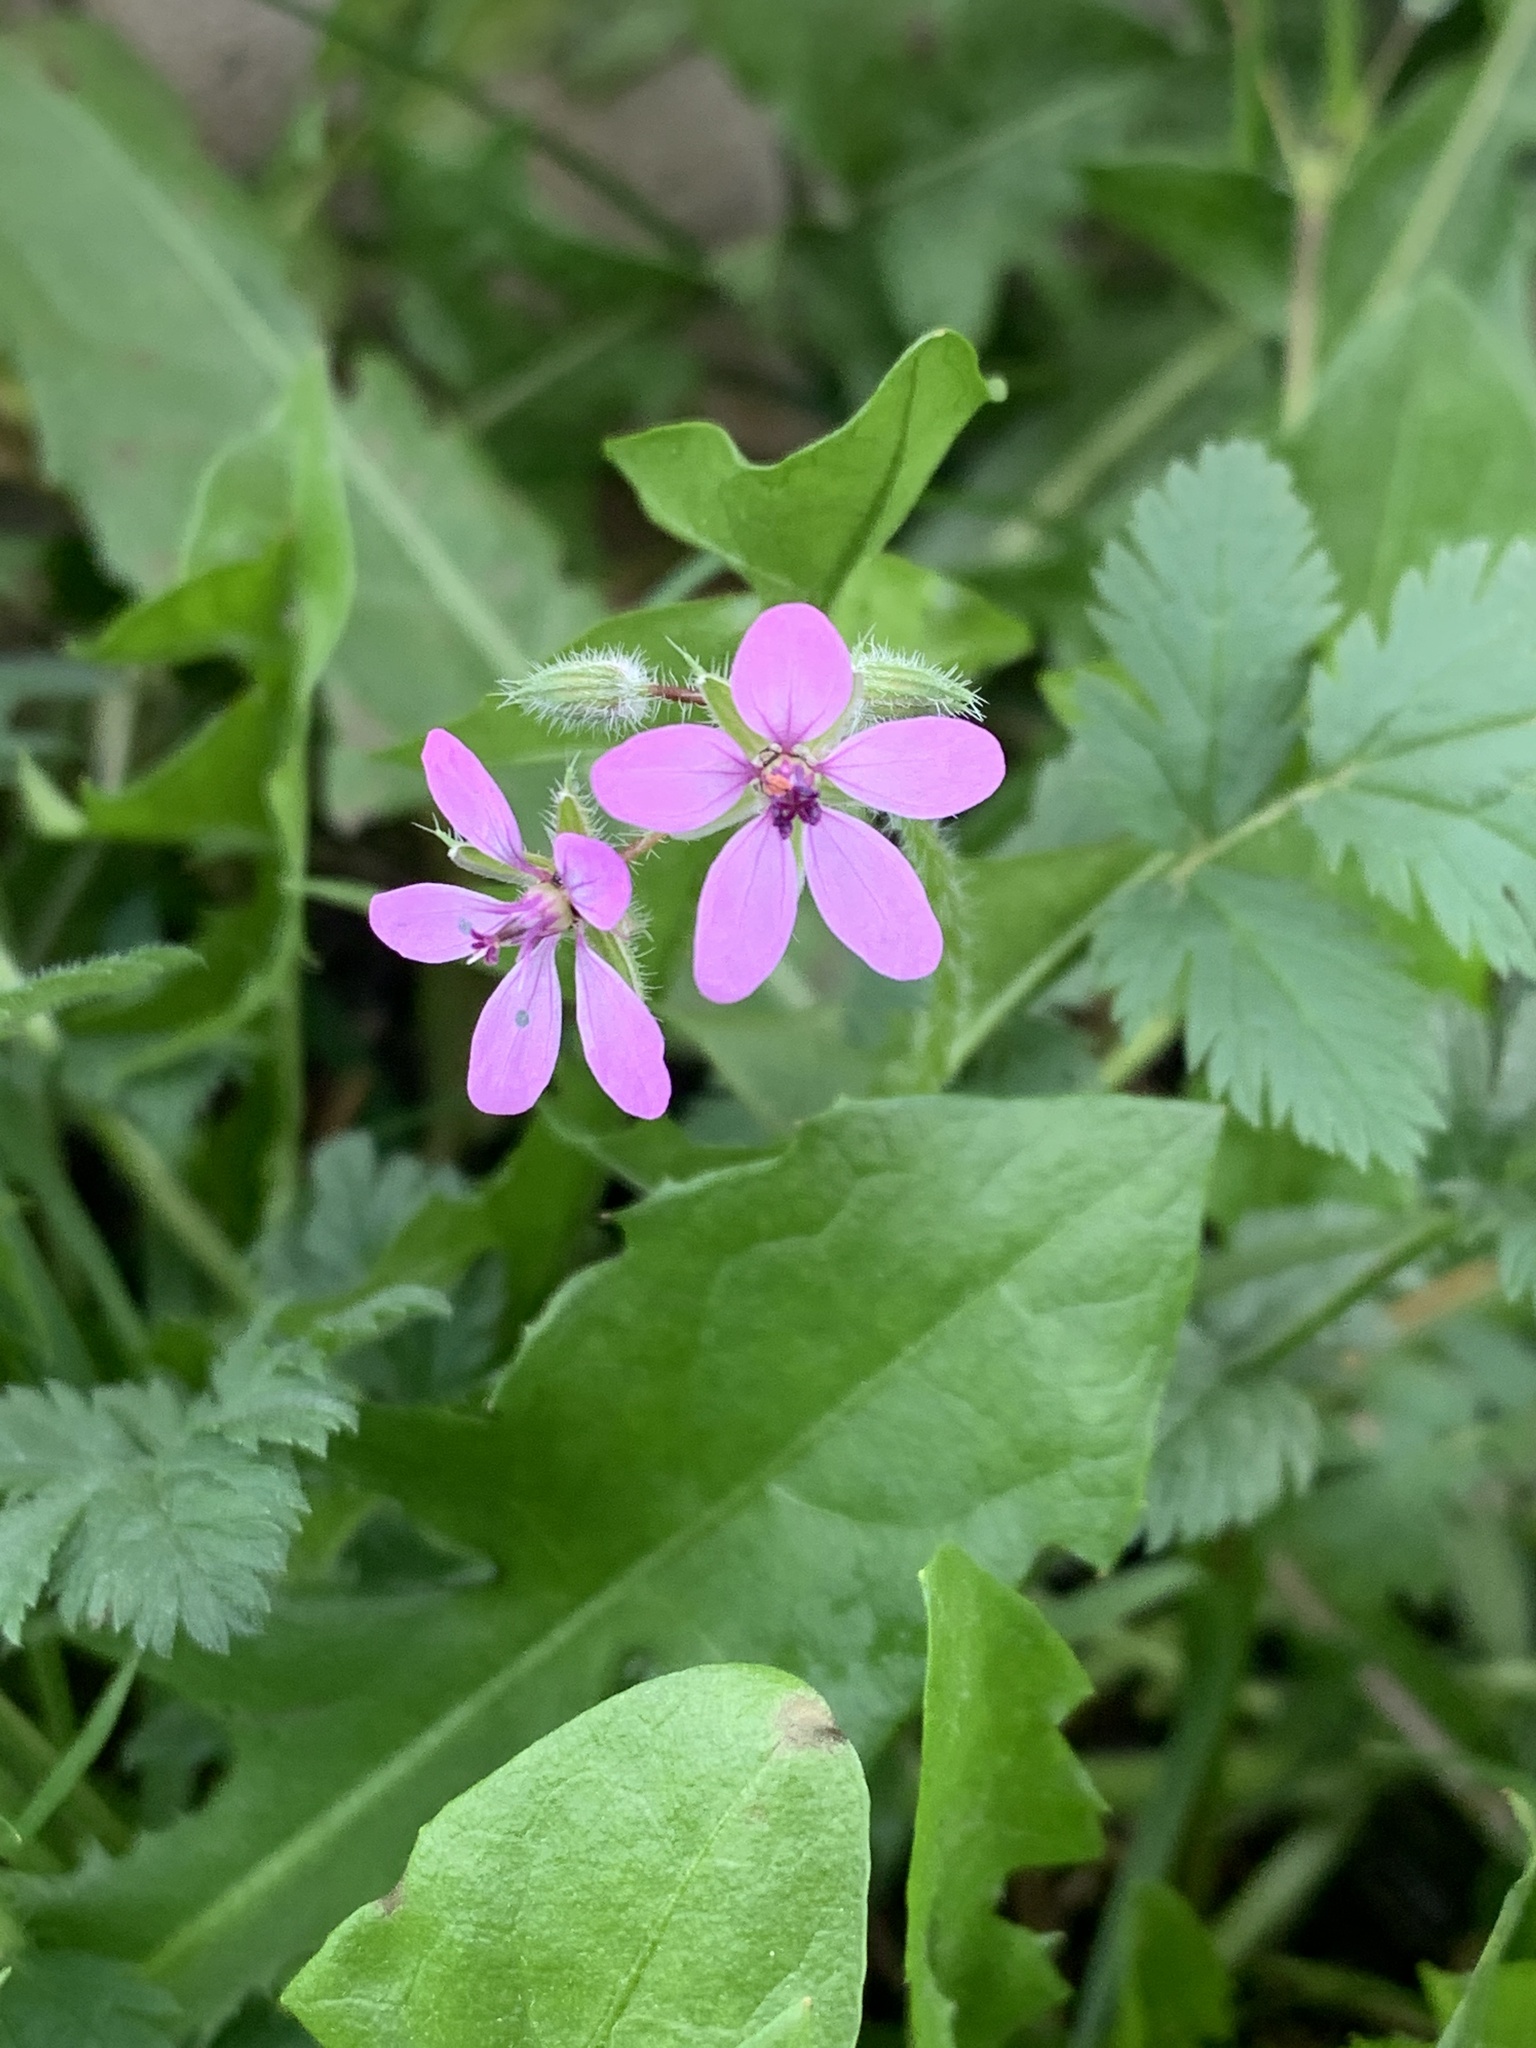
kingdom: Plantae
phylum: Tracheophyta
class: Magnoliopsida
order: Geraniales
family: Geraniaceae
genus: Erodium
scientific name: Erodium cicutarium
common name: Common stork's-bill
